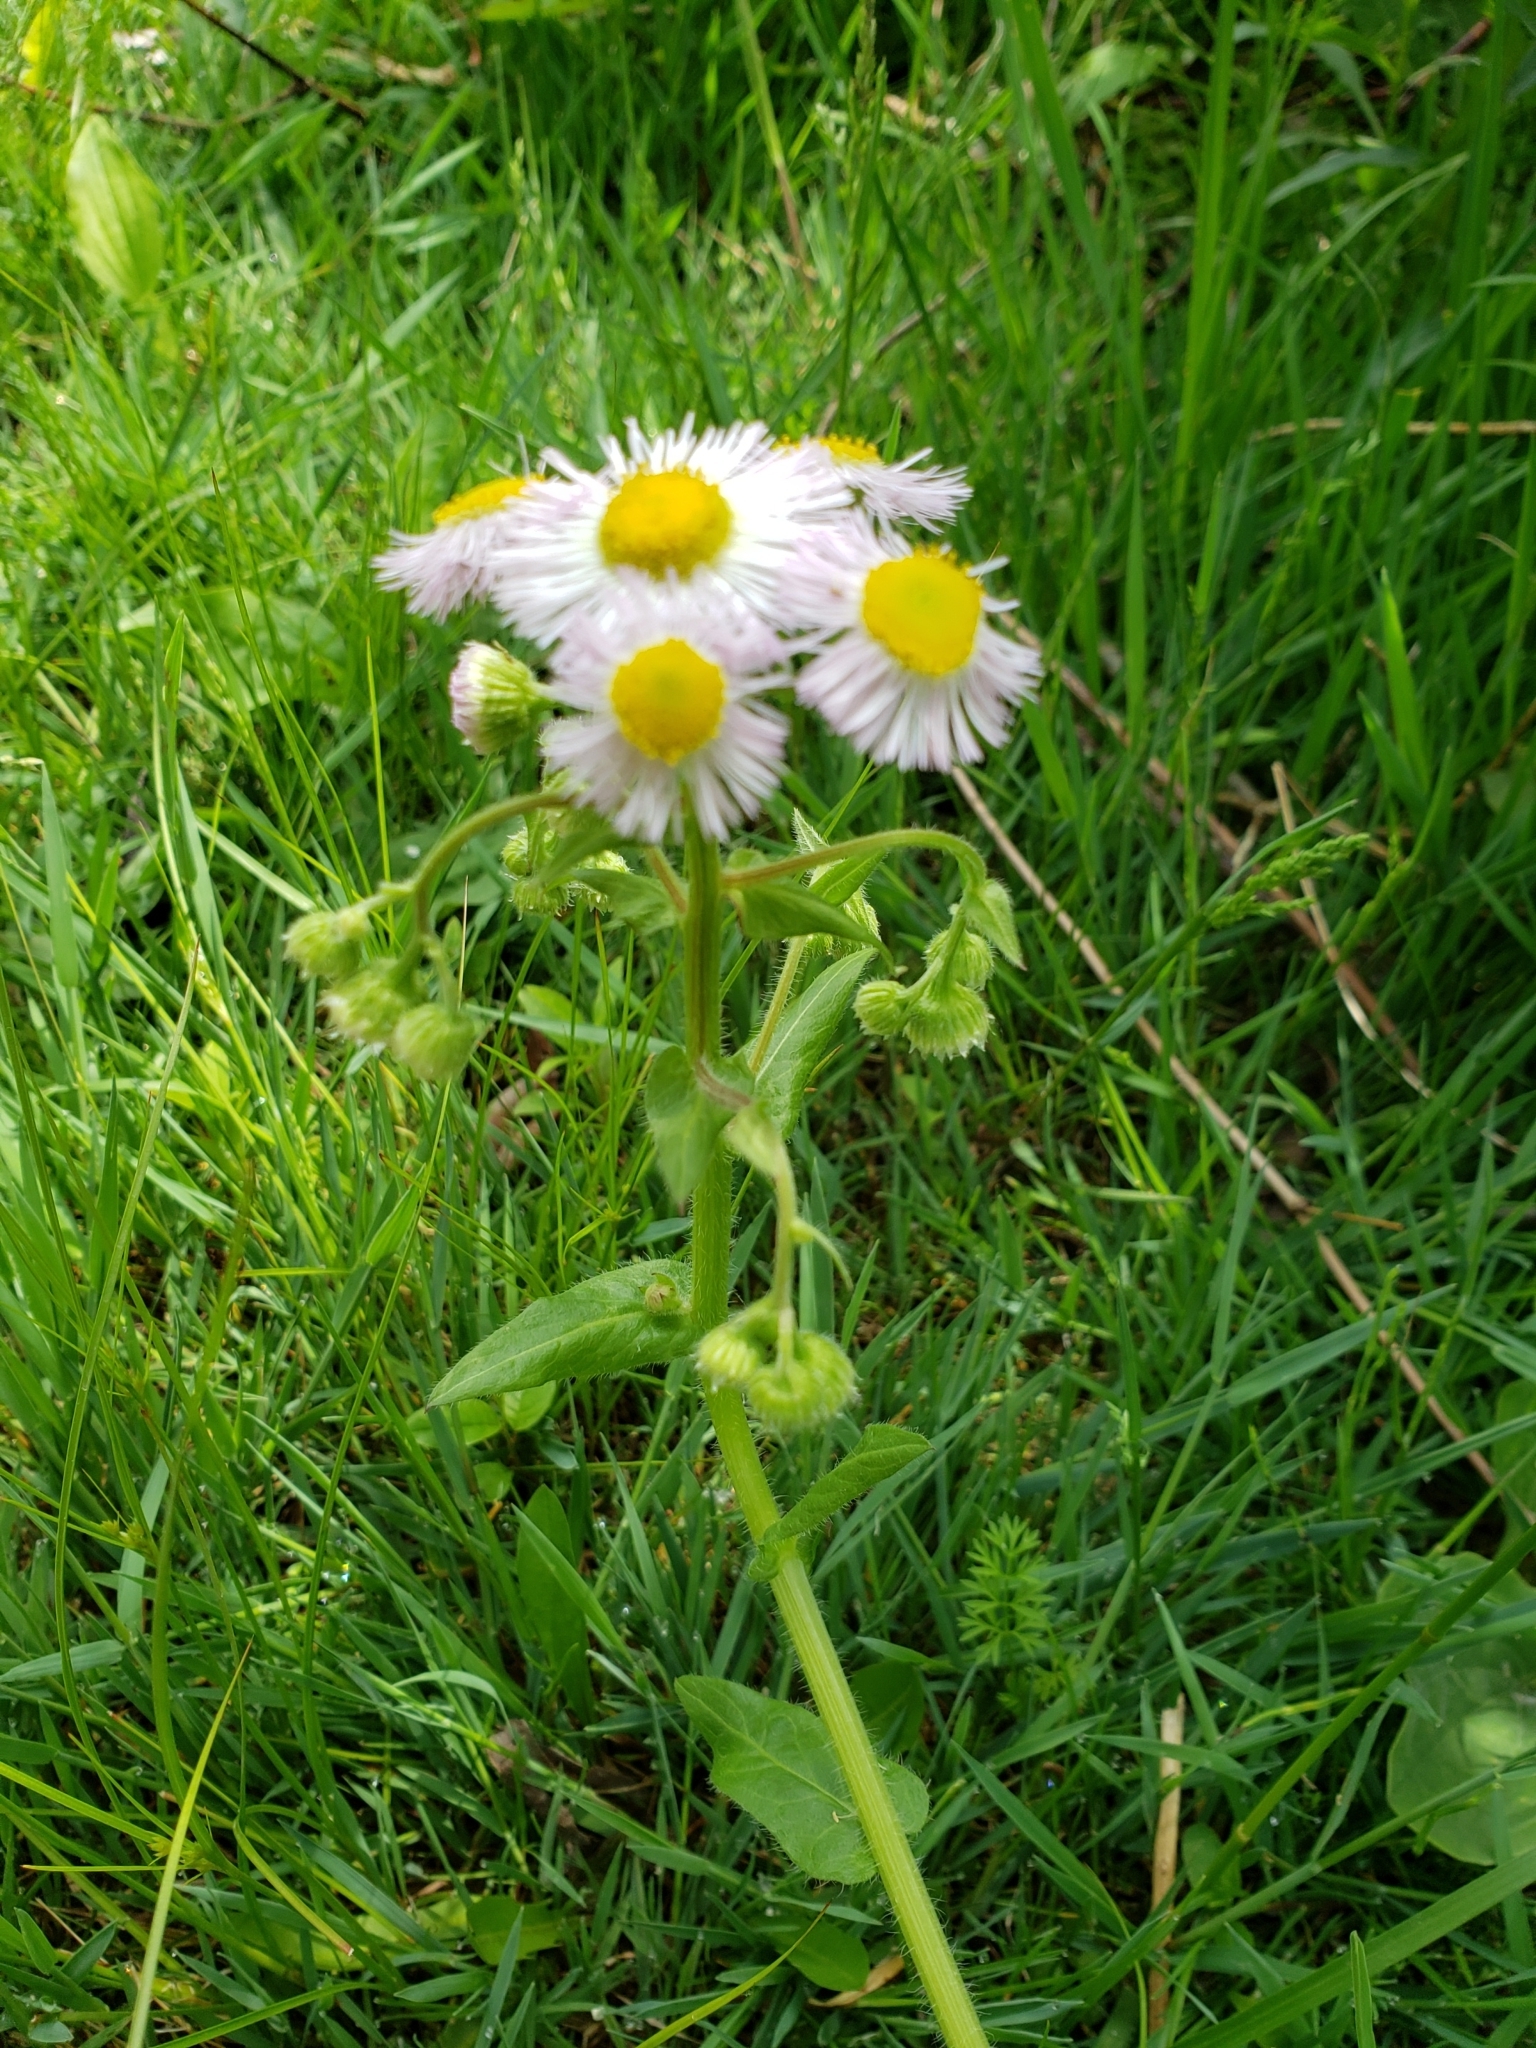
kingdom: Plantae
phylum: Tracheophyta
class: Magnoliopsida
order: Asterales
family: Asteraceae
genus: Erigeron
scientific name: Erigeron philadelphicus
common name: Robin's-plantain
